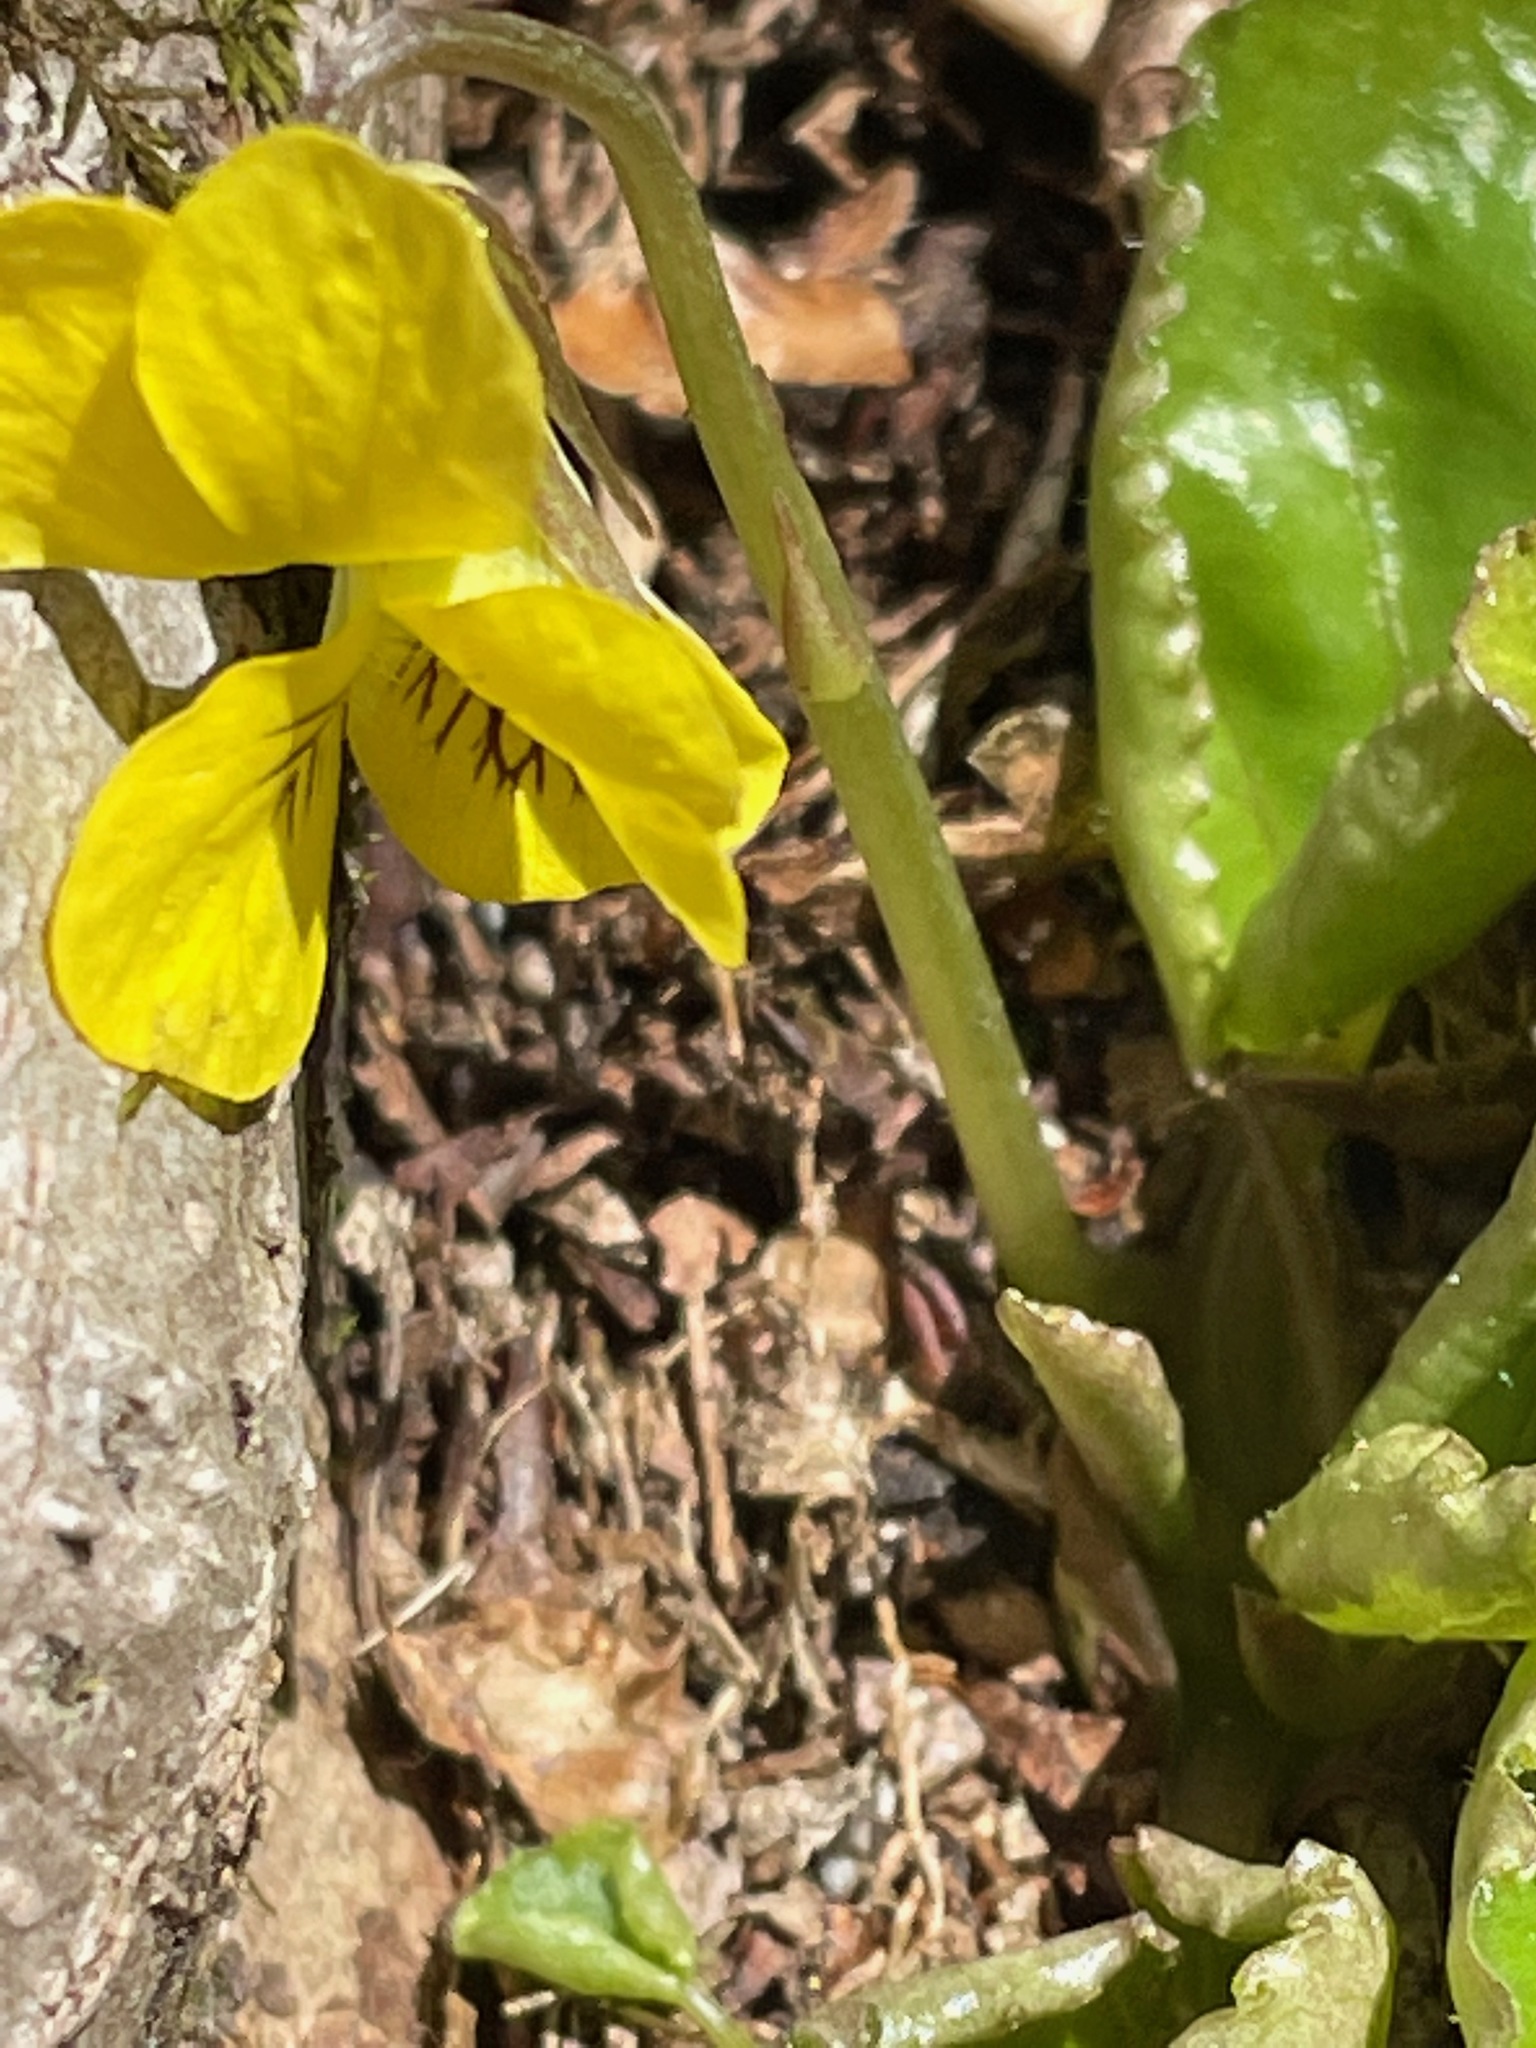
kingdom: Plantae
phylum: Tracheophyta
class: Magnoliopsida
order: Malpighiales
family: Violaceae
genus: Viola
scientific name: Viola rotundifolia
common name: Early yellow violet
